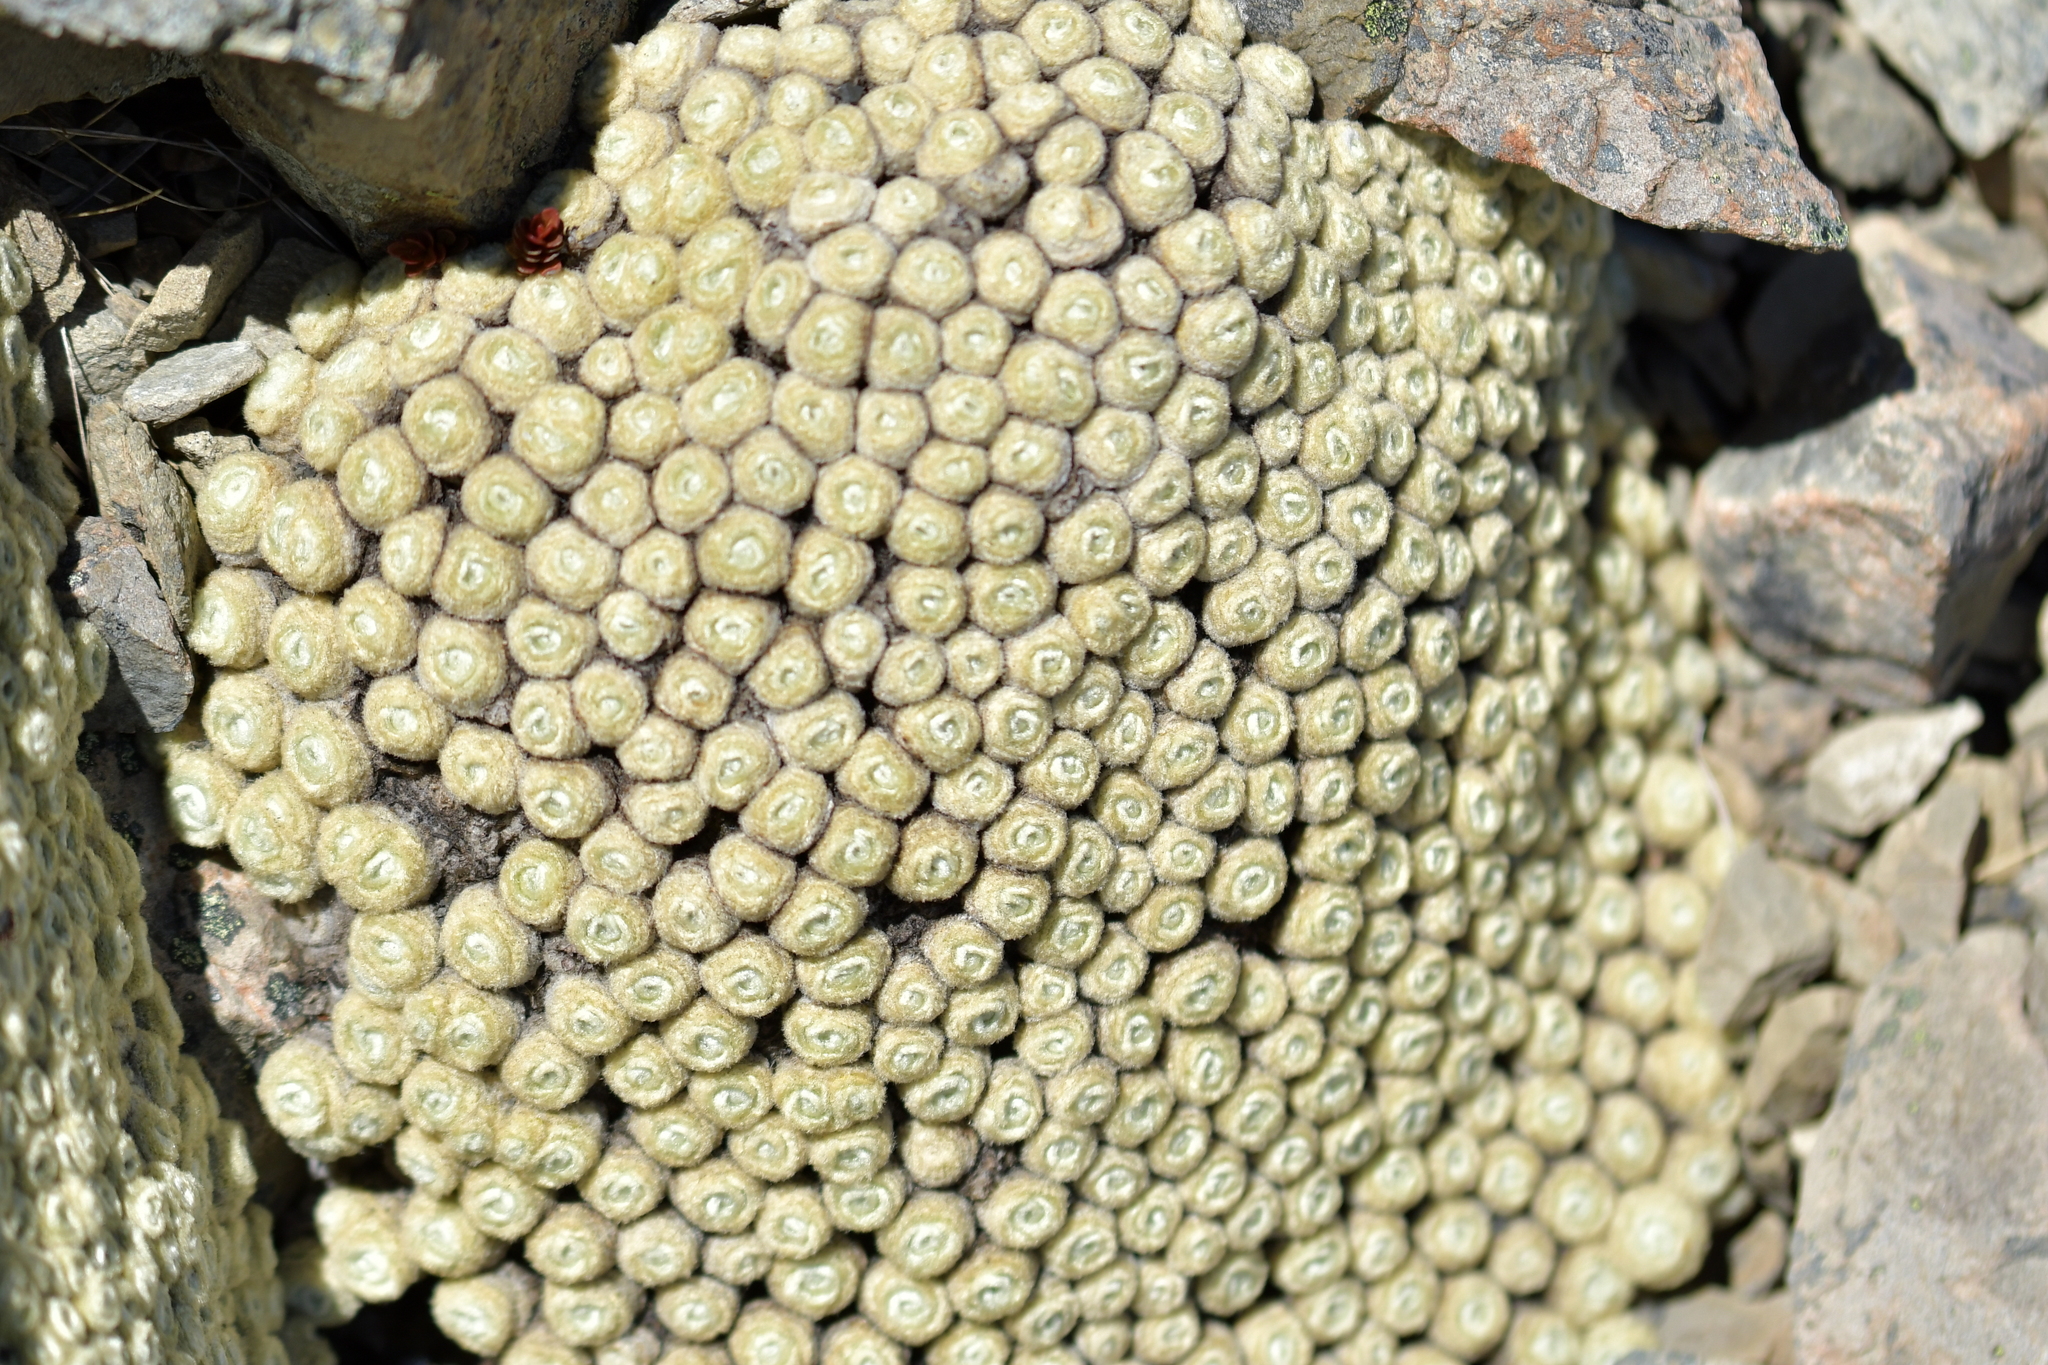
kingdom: Plantae
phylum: Tracheophyta
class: Magnoliopsida
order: Asterales
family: Asteraceae
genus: Haastia
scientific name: Haastia pulvinaris
